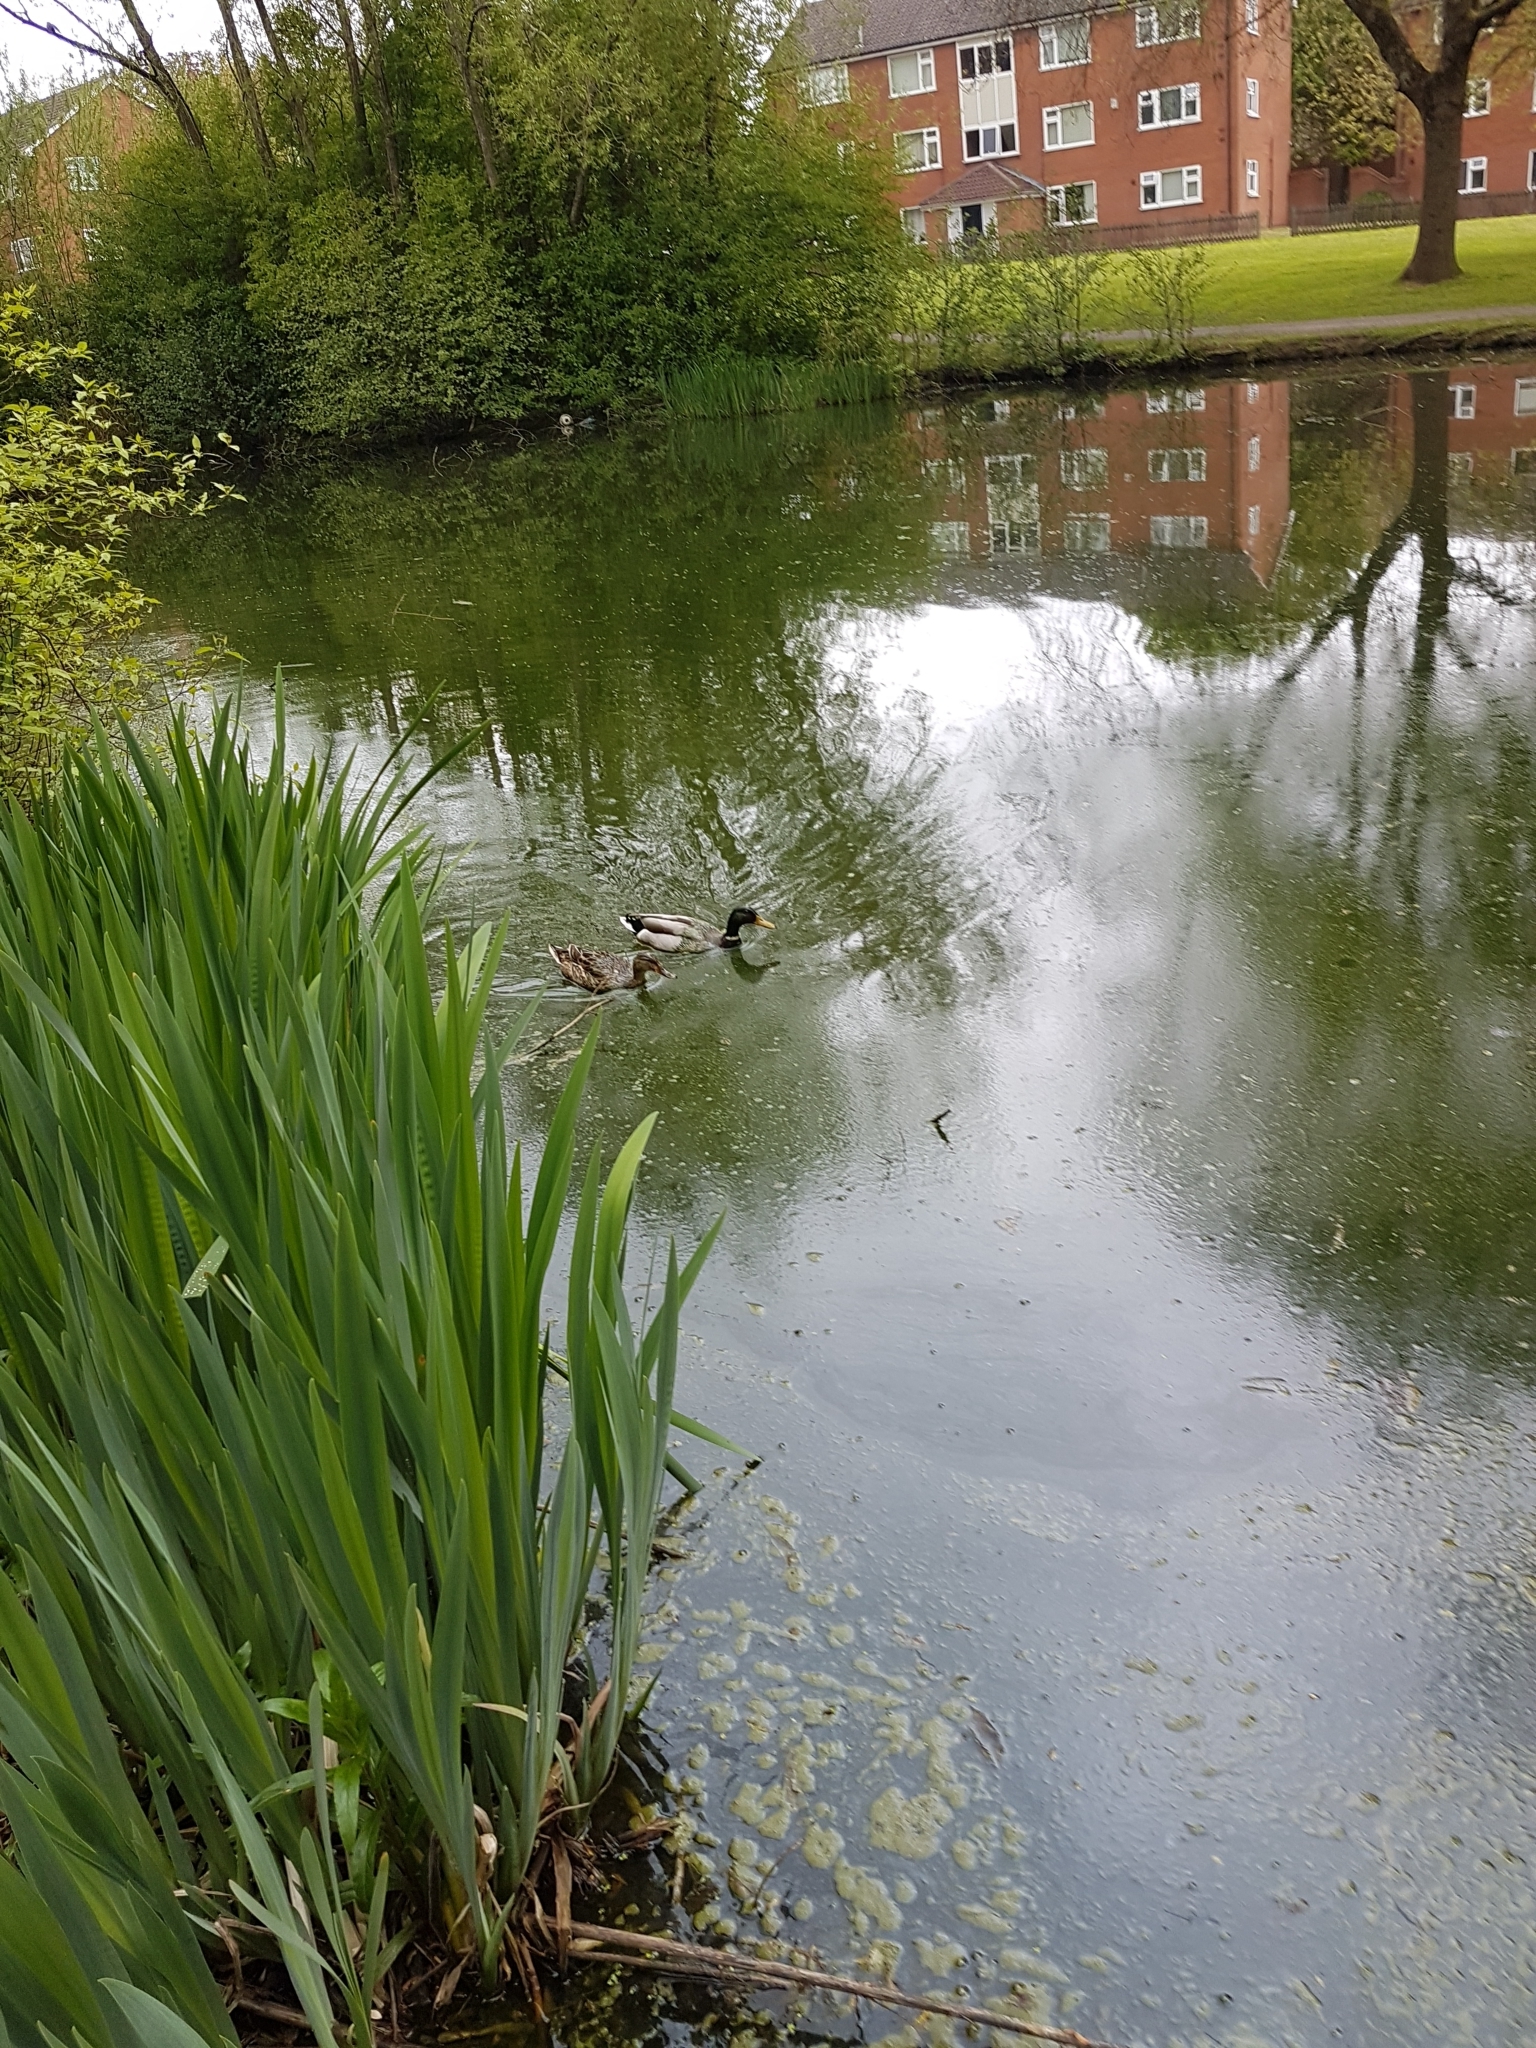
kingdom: Animalia
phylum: Chordata
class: Aves
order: Anseriformes
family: Anatidae
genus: Anas
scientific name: Anas platyrhynchos
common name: Mallard
